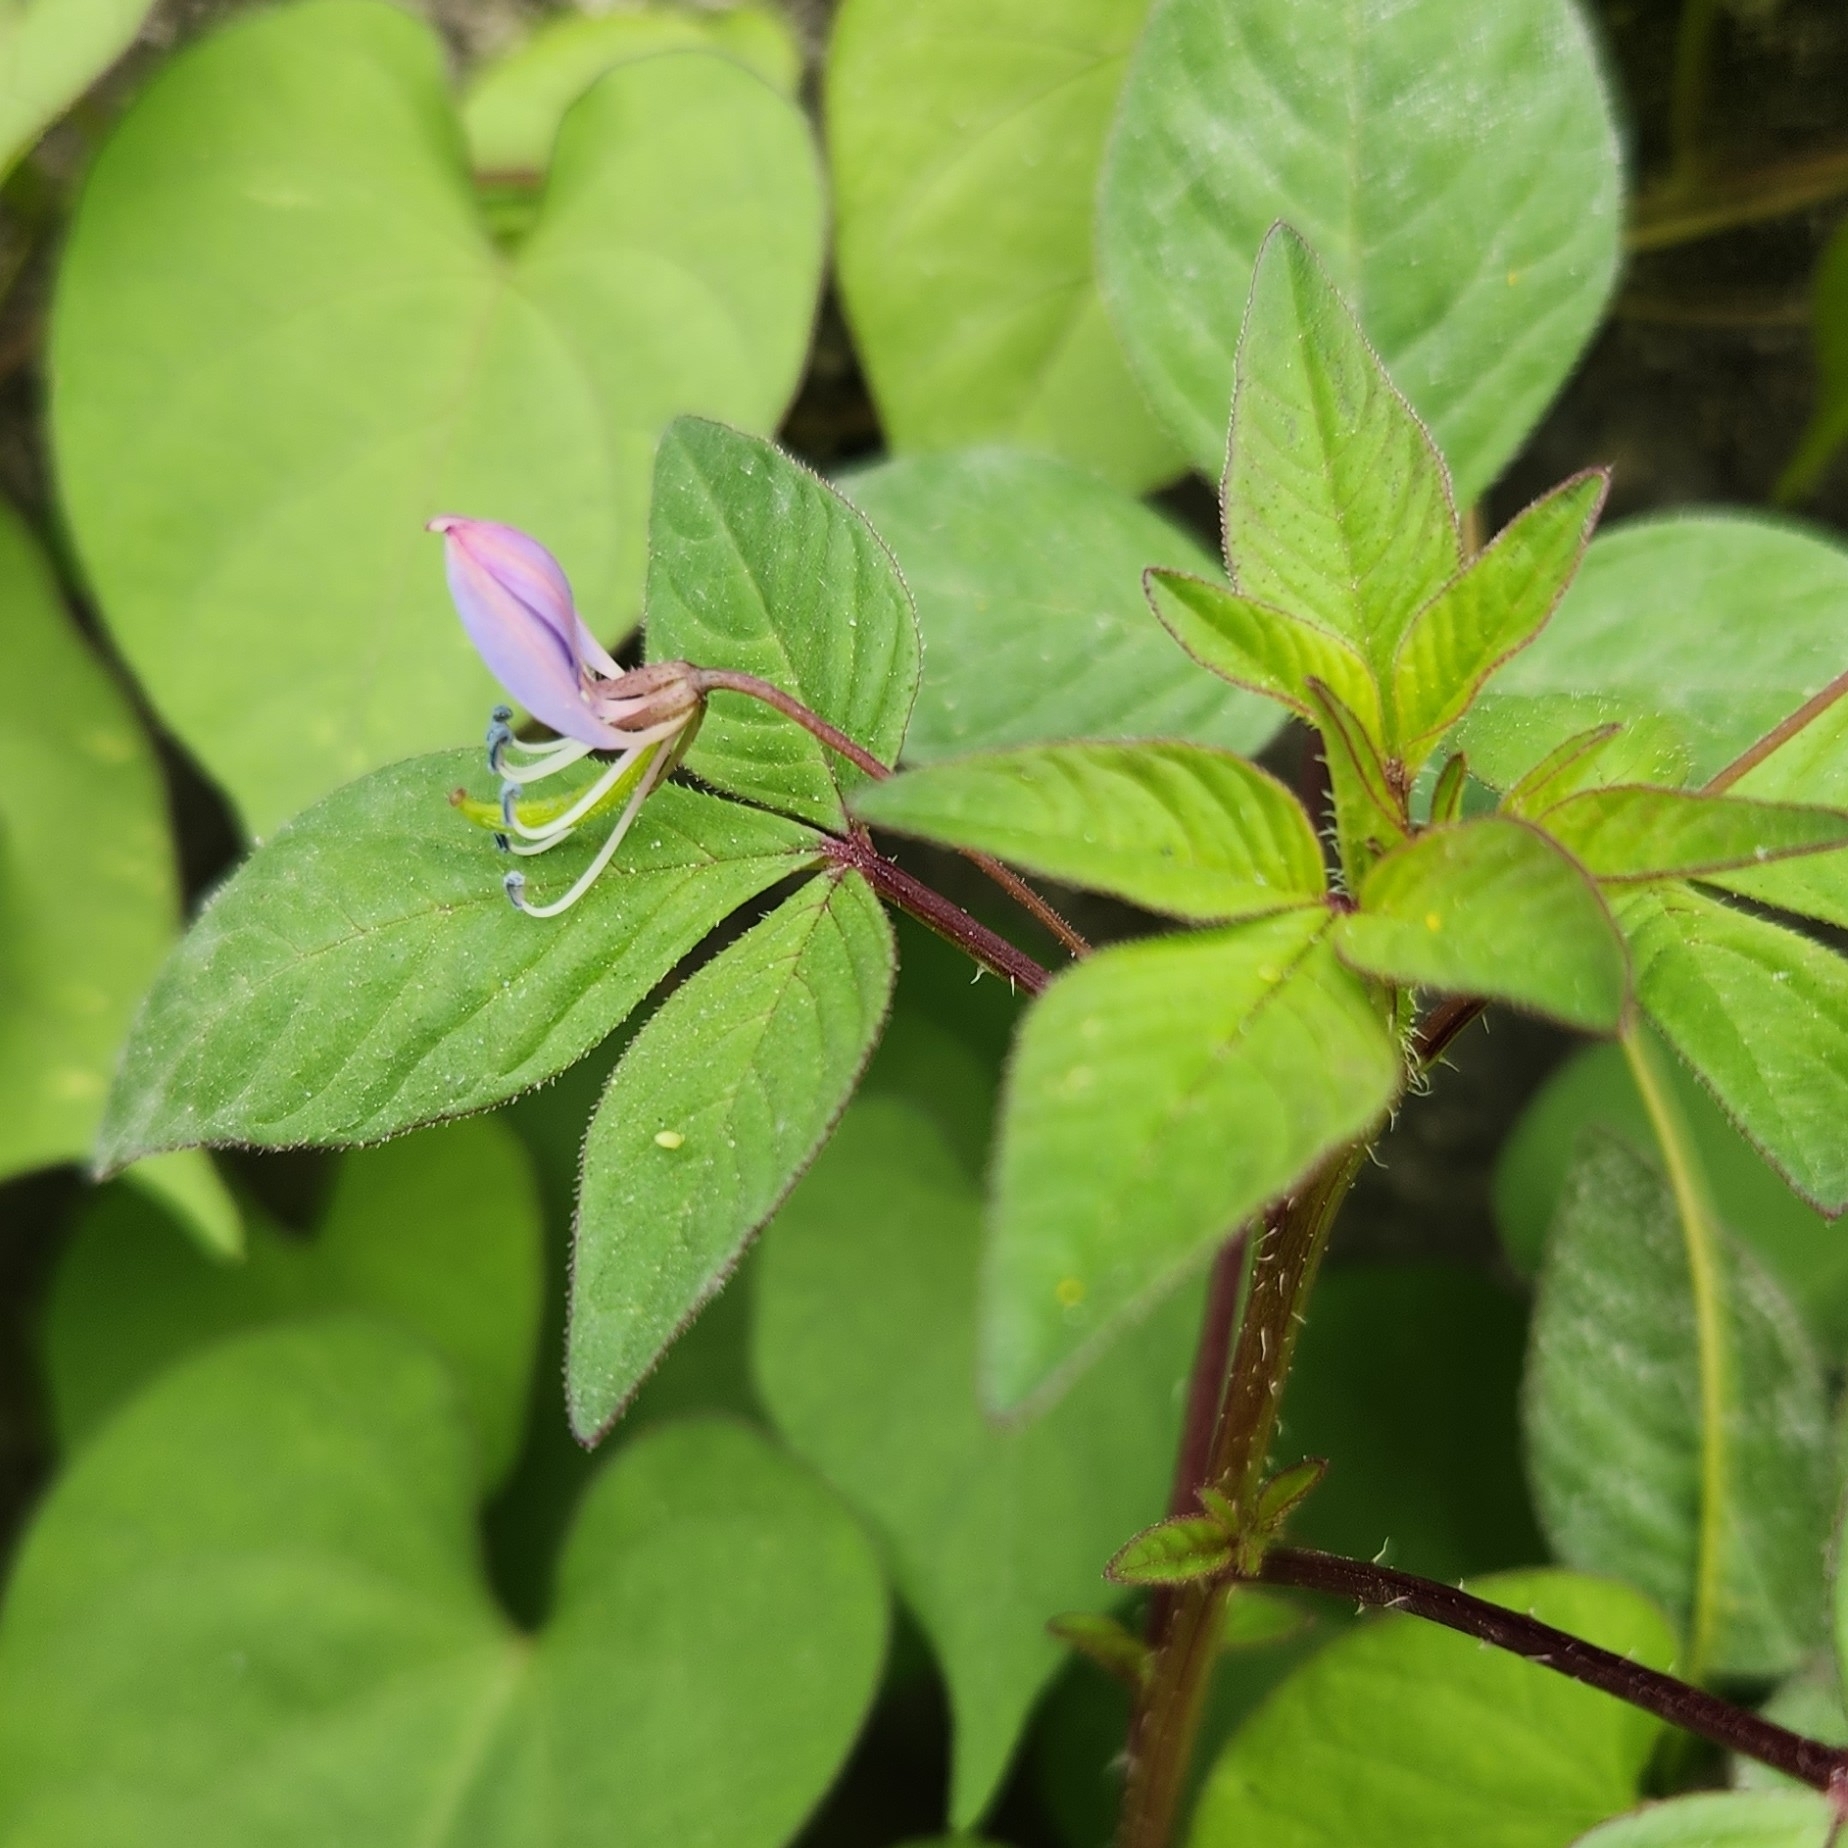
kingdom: Plantae
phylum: Tracheophyta
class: Magnoliopsida
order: Brassicales
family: Cleomaceae
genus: Sieruela
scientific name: Sieruela rutidosperma
